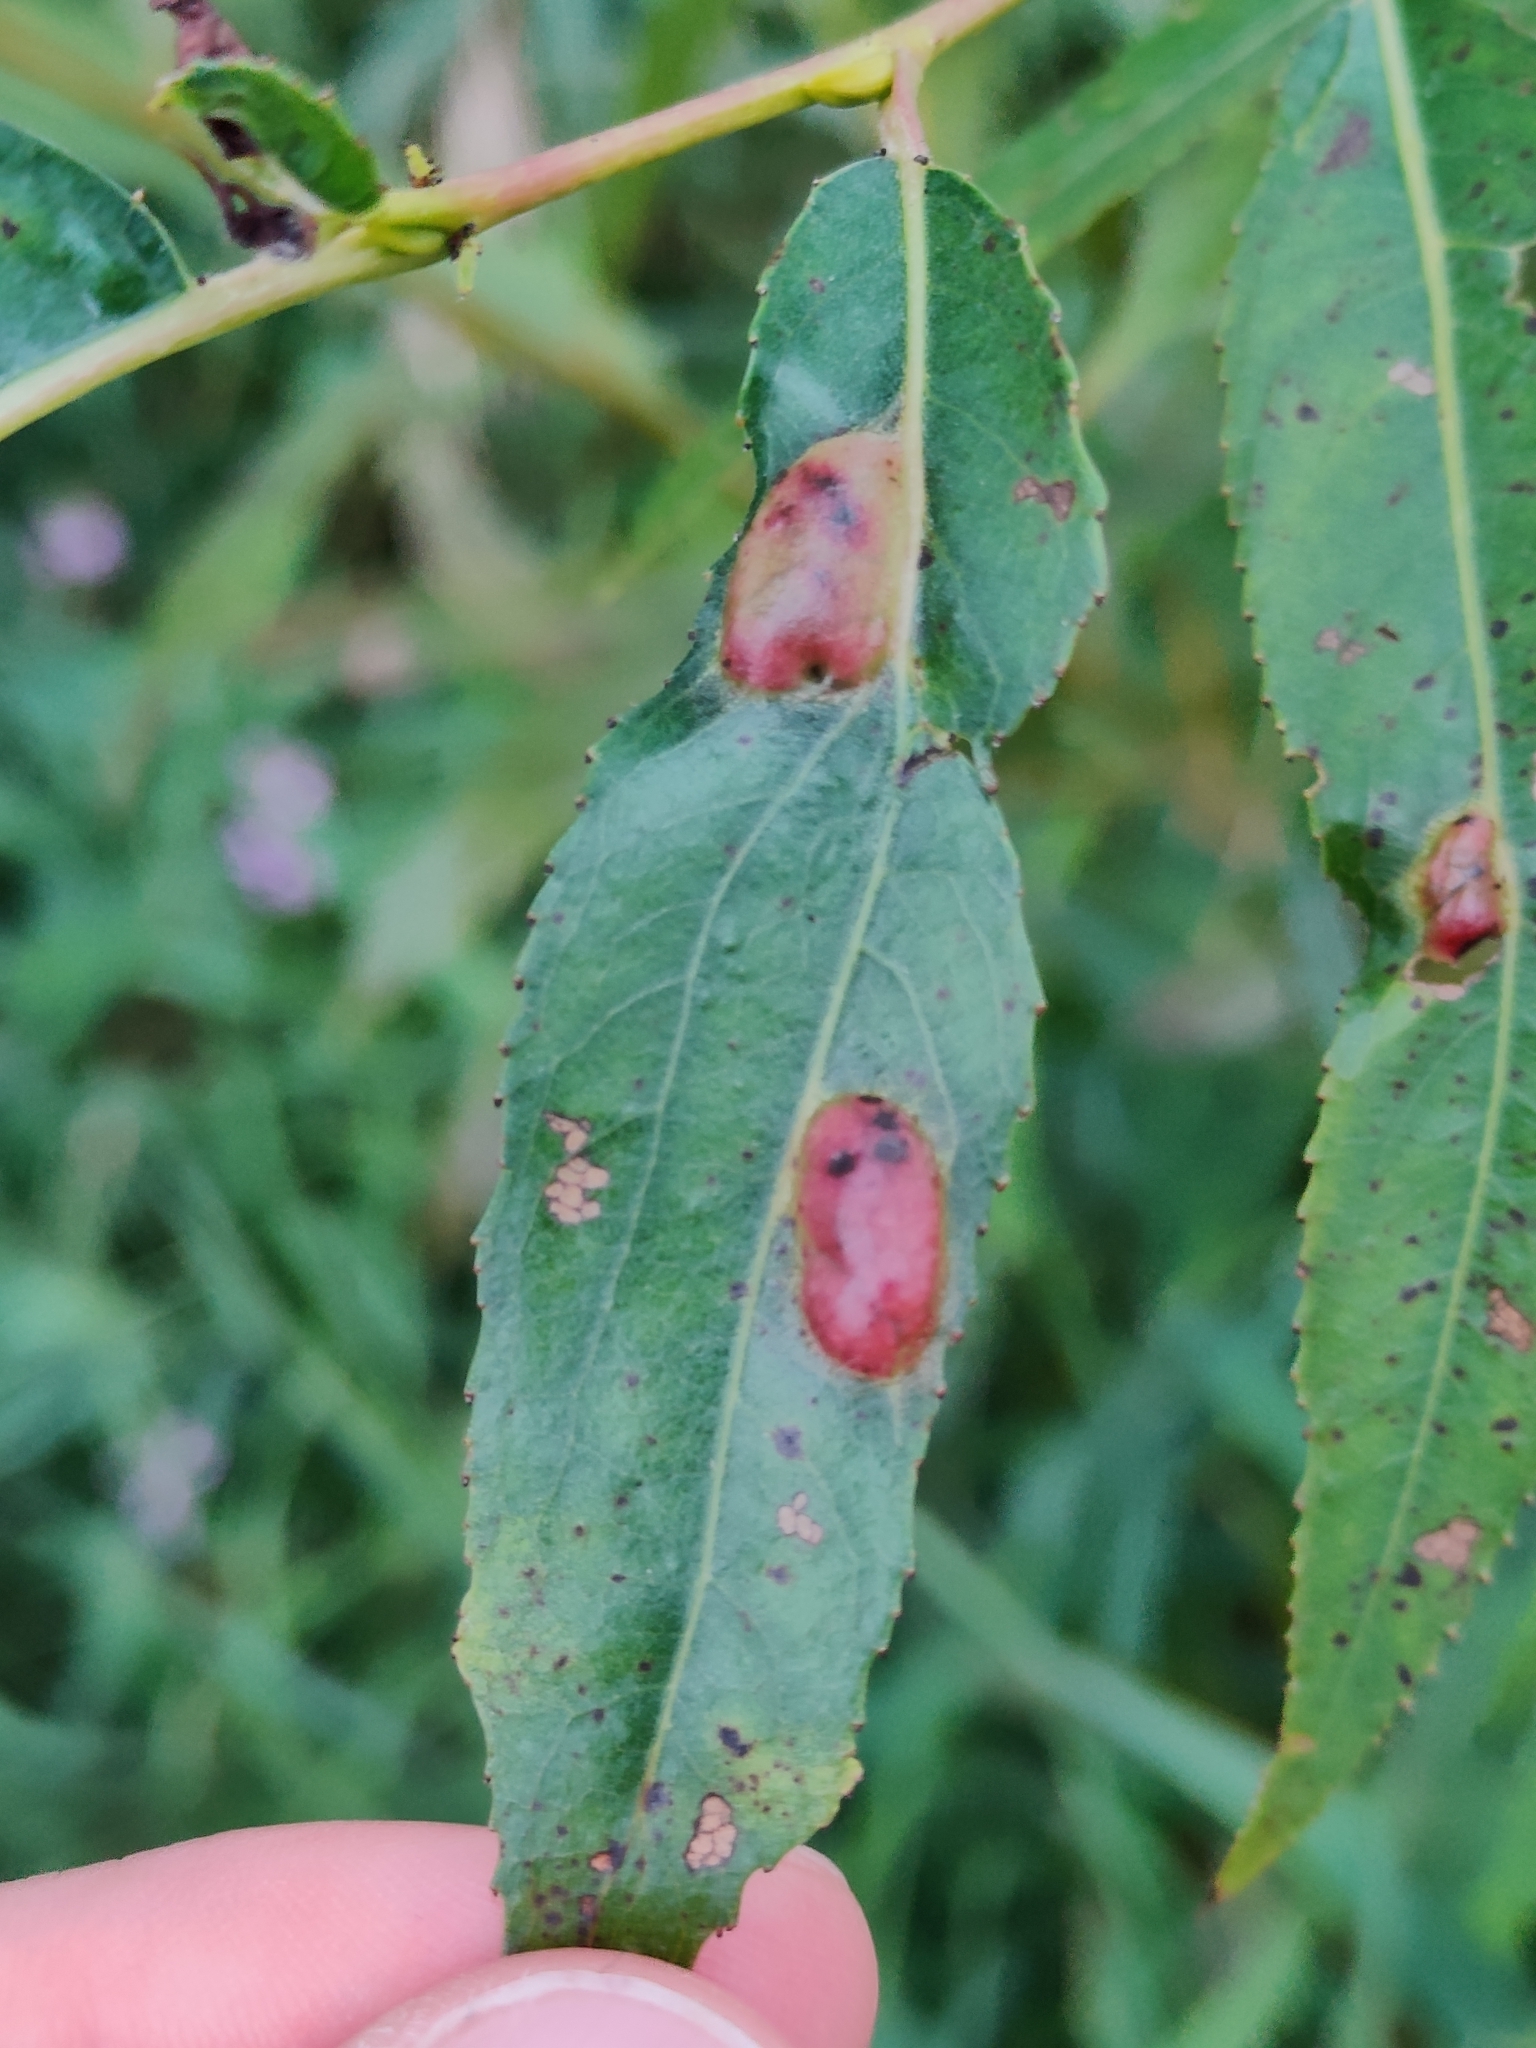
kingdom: Animalia
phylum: Arthropoda
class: Insecta
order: Hymenoptera
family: Tenthredinidae
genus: Pontania
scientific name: Pontania proxima
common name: Common sawfly
